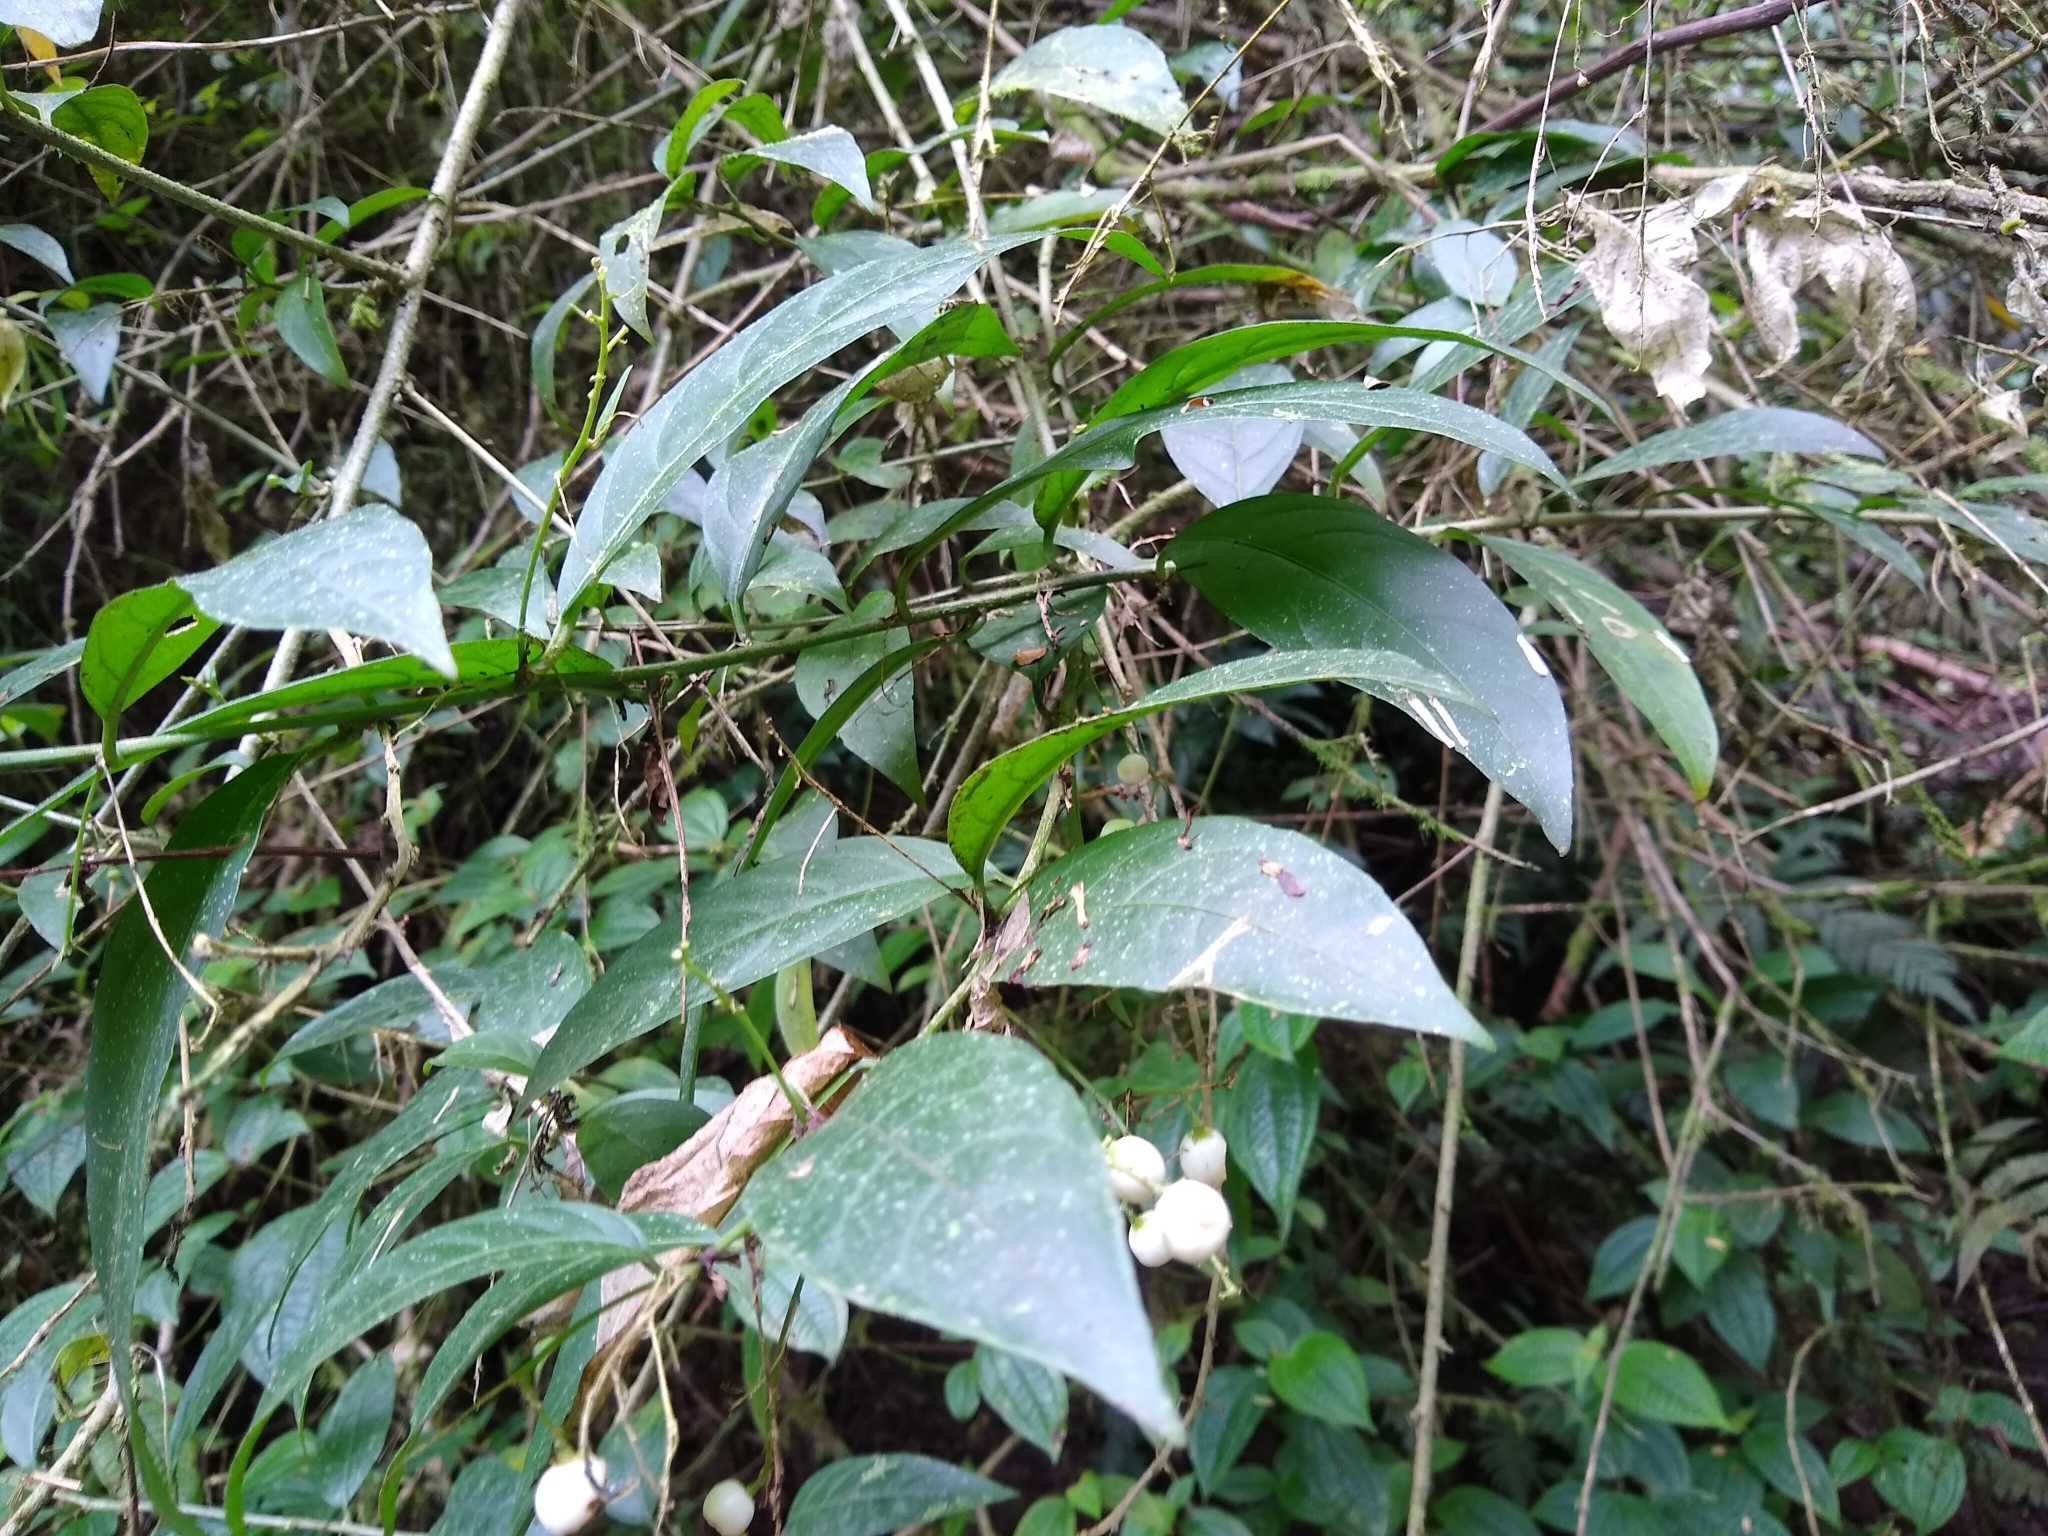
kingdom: Plantae
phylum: Tracheophyta
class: Magnoliopsida
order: Solanales
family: Solanaceae
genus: Cestrum
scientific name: Cestrum nocturnum
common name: Night jessamine
